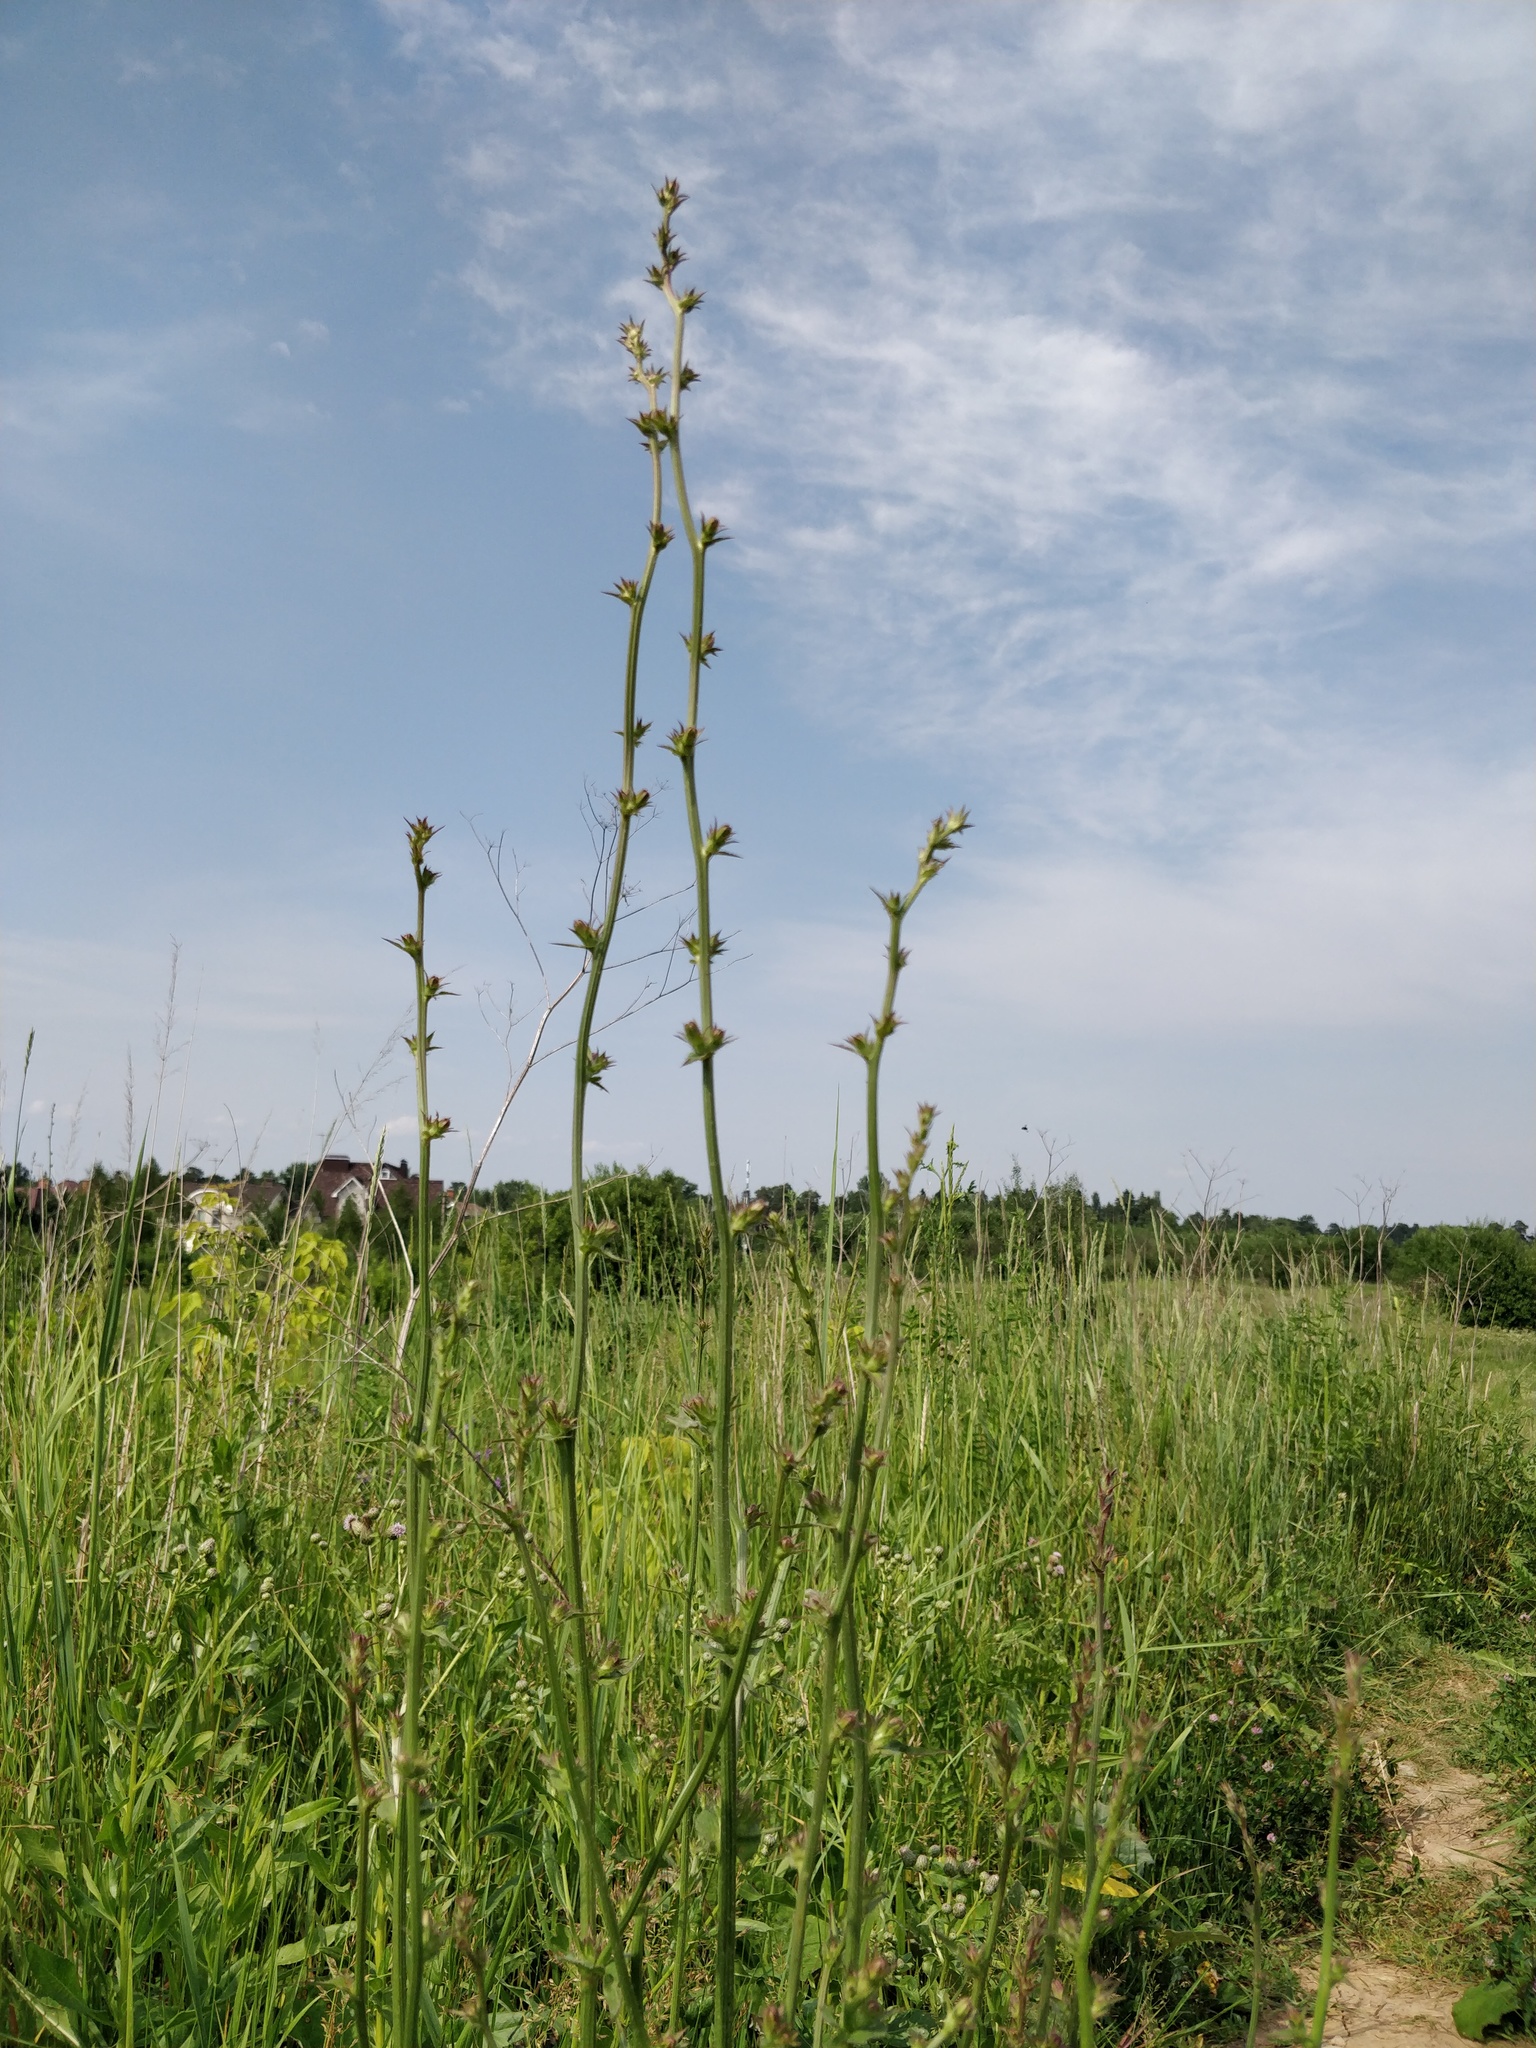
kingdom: Plantae
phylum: Tracheophyta
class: Magnoliopsida
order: Asterales
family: Asteraceae
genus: Cichorium
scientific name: Cichorium intybus
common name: Chicory
